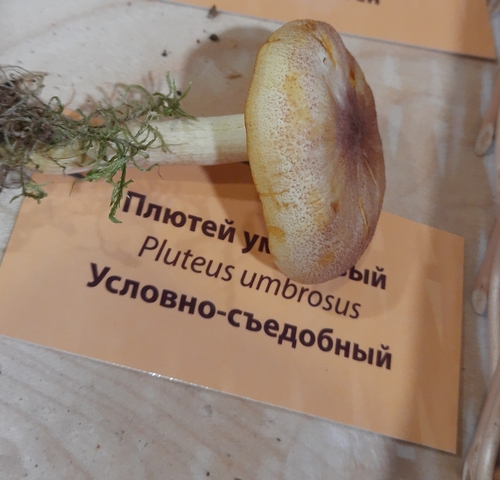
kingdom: Fungi
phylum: Basidiomycota
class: Agaricomycetes
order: Agaricales
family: Tricholomataceae
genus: Tricholomopsis
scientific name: Tricholomopsis rutilans
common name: Plums and custard
